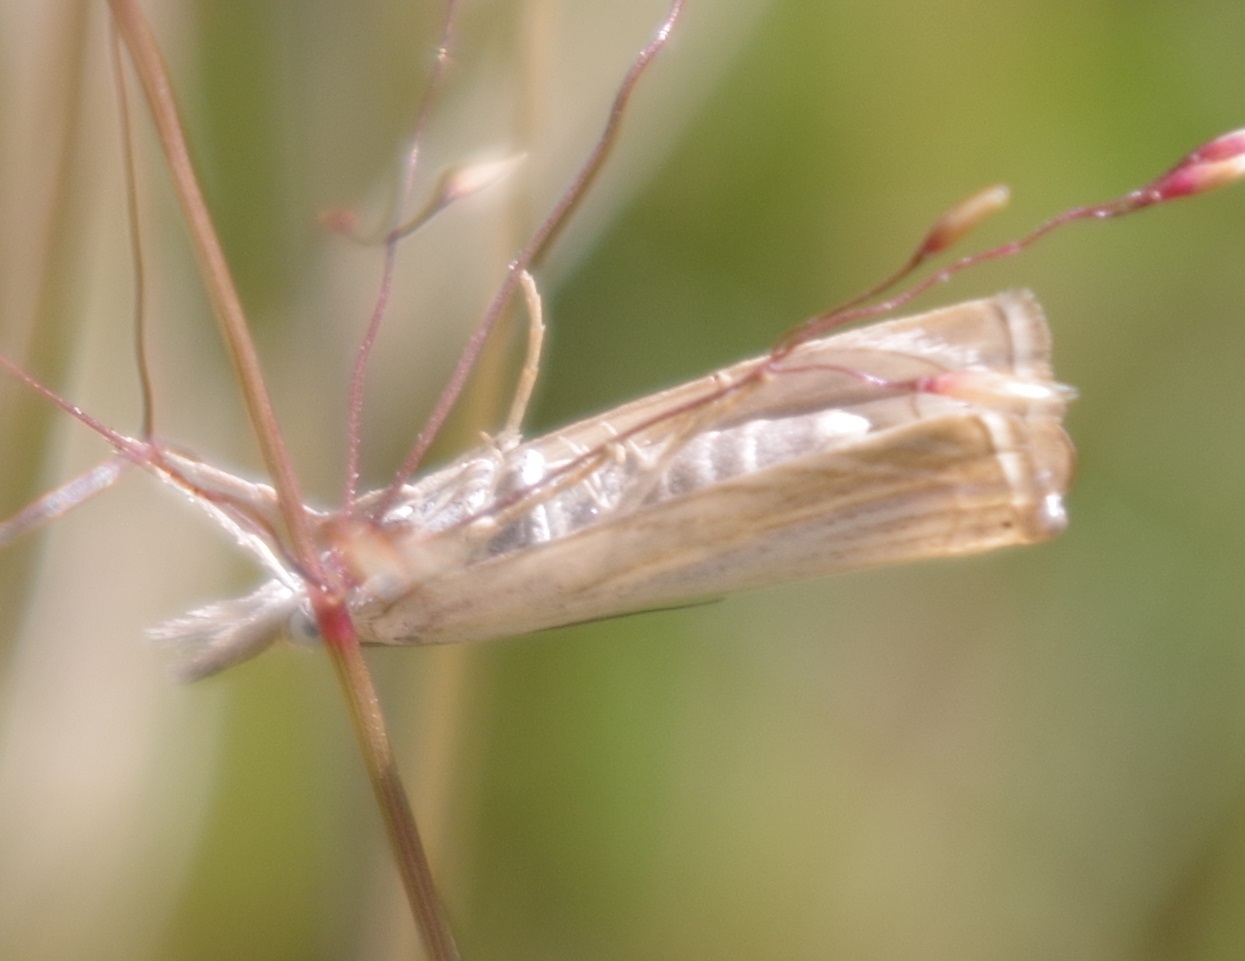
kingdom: Animalia
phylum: Arthropoda
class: Insecta
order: Lepidoptera
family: Crambidae
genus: Chrysoteuchia
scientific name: Chrysoteuchia culmella
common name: Garden grass-veneer
